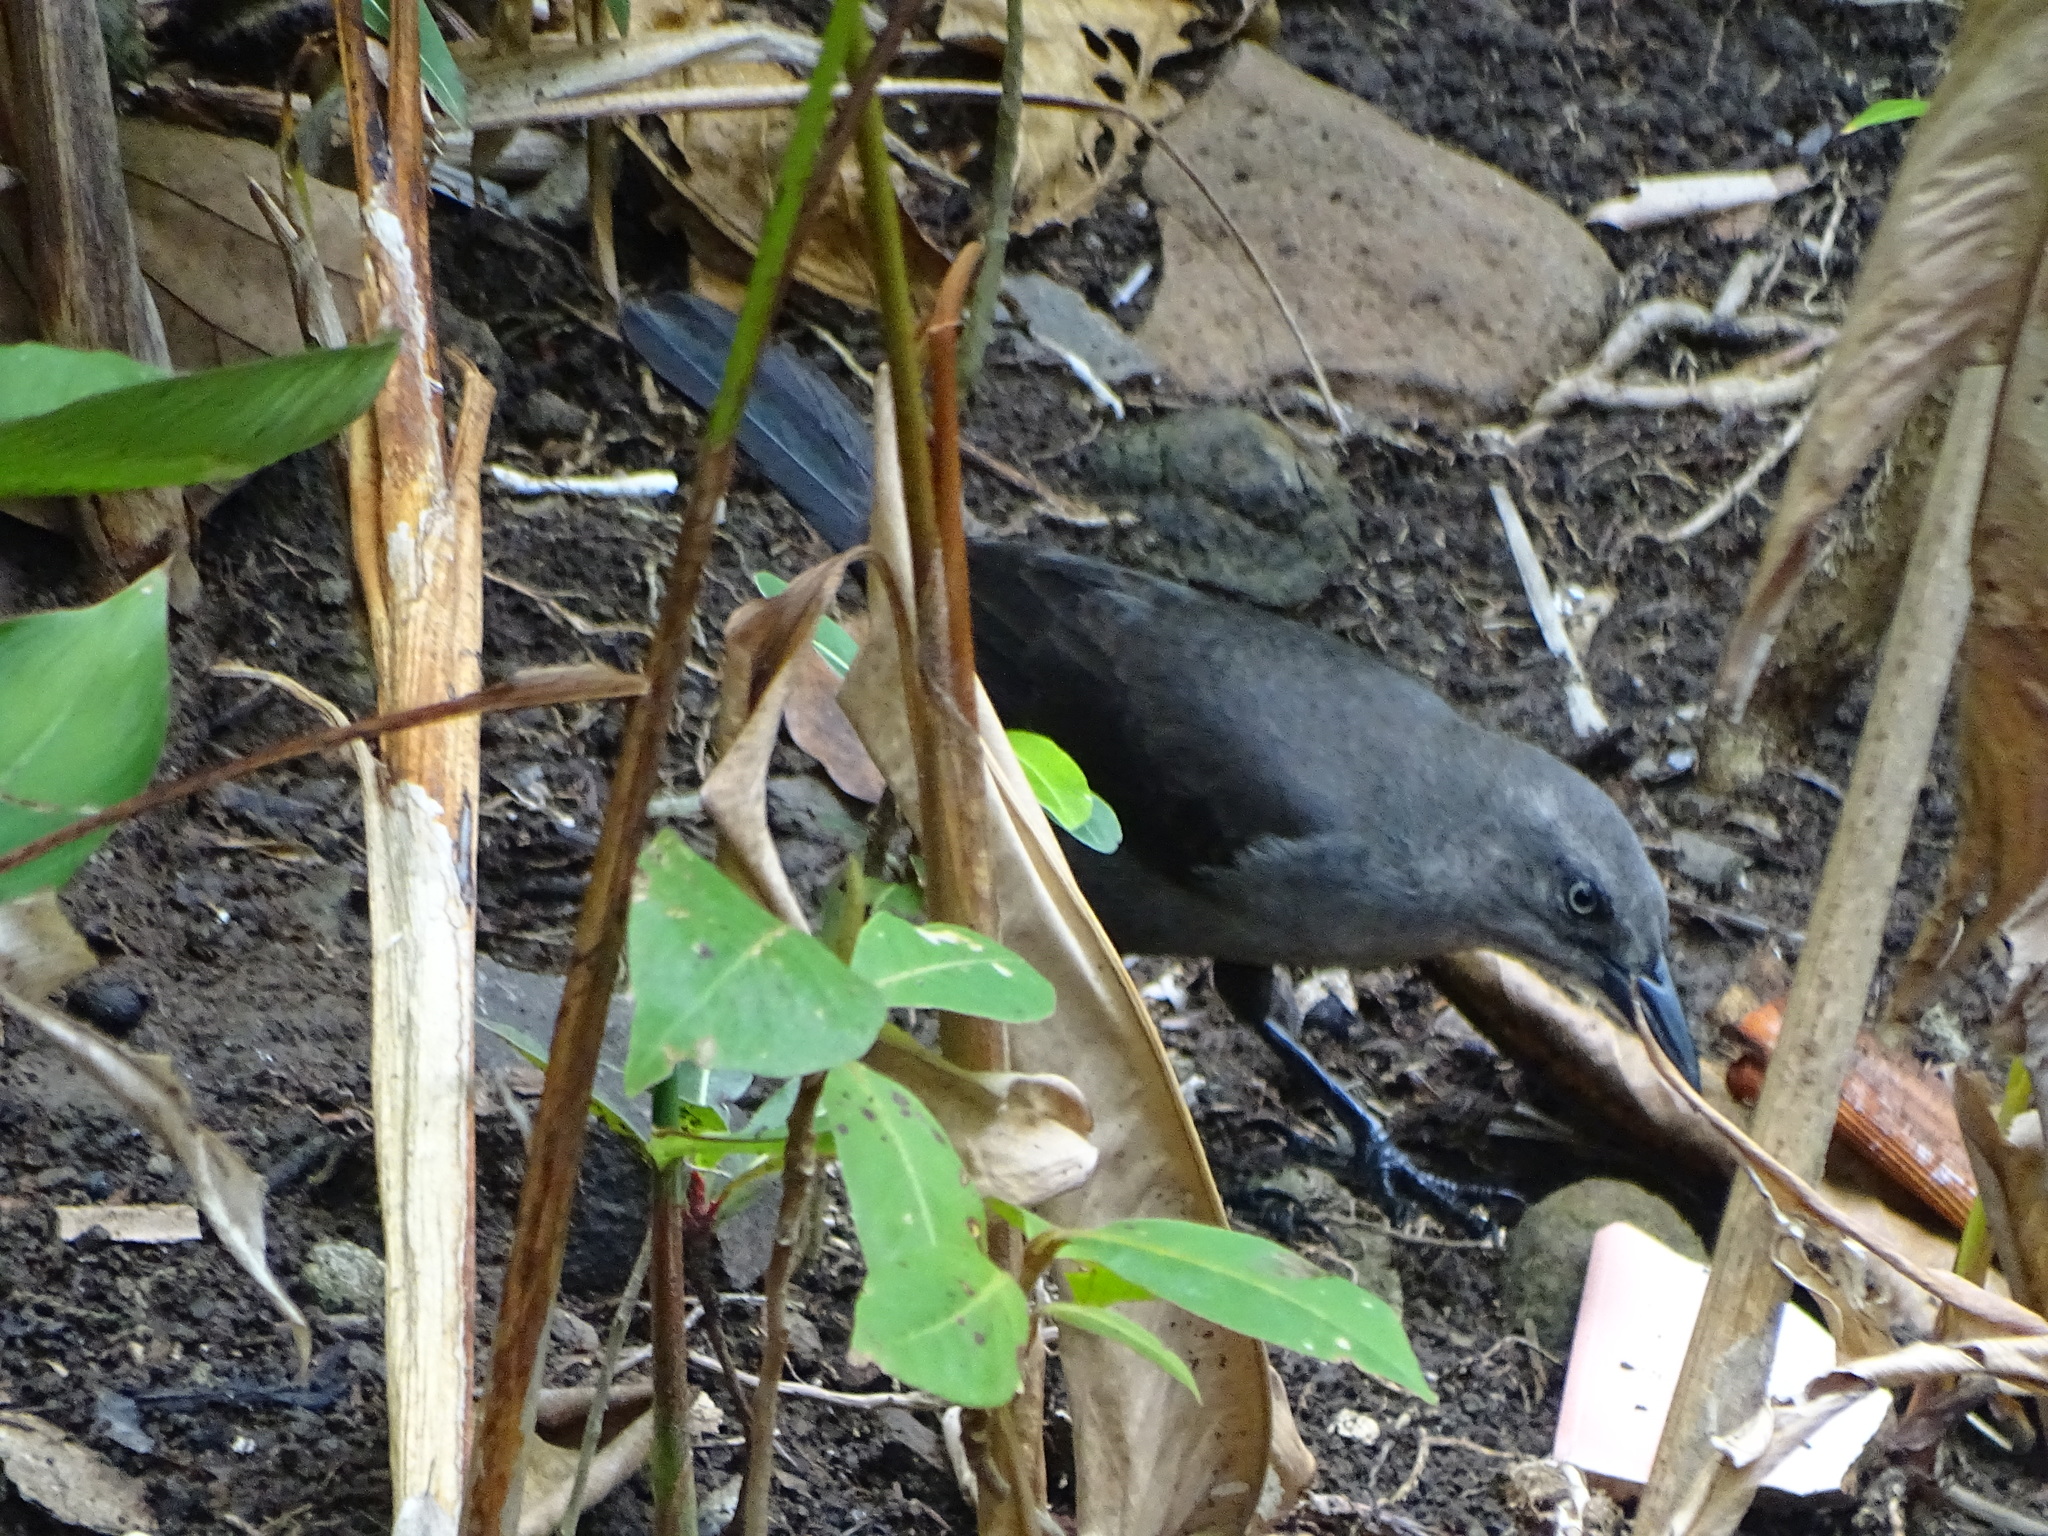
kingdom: Animalia
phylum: Chordata
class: Aves
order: Passeriformes
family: Icteridae
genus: Quiscalus
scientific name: Quiscalus lugubris
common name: Carib grackle
